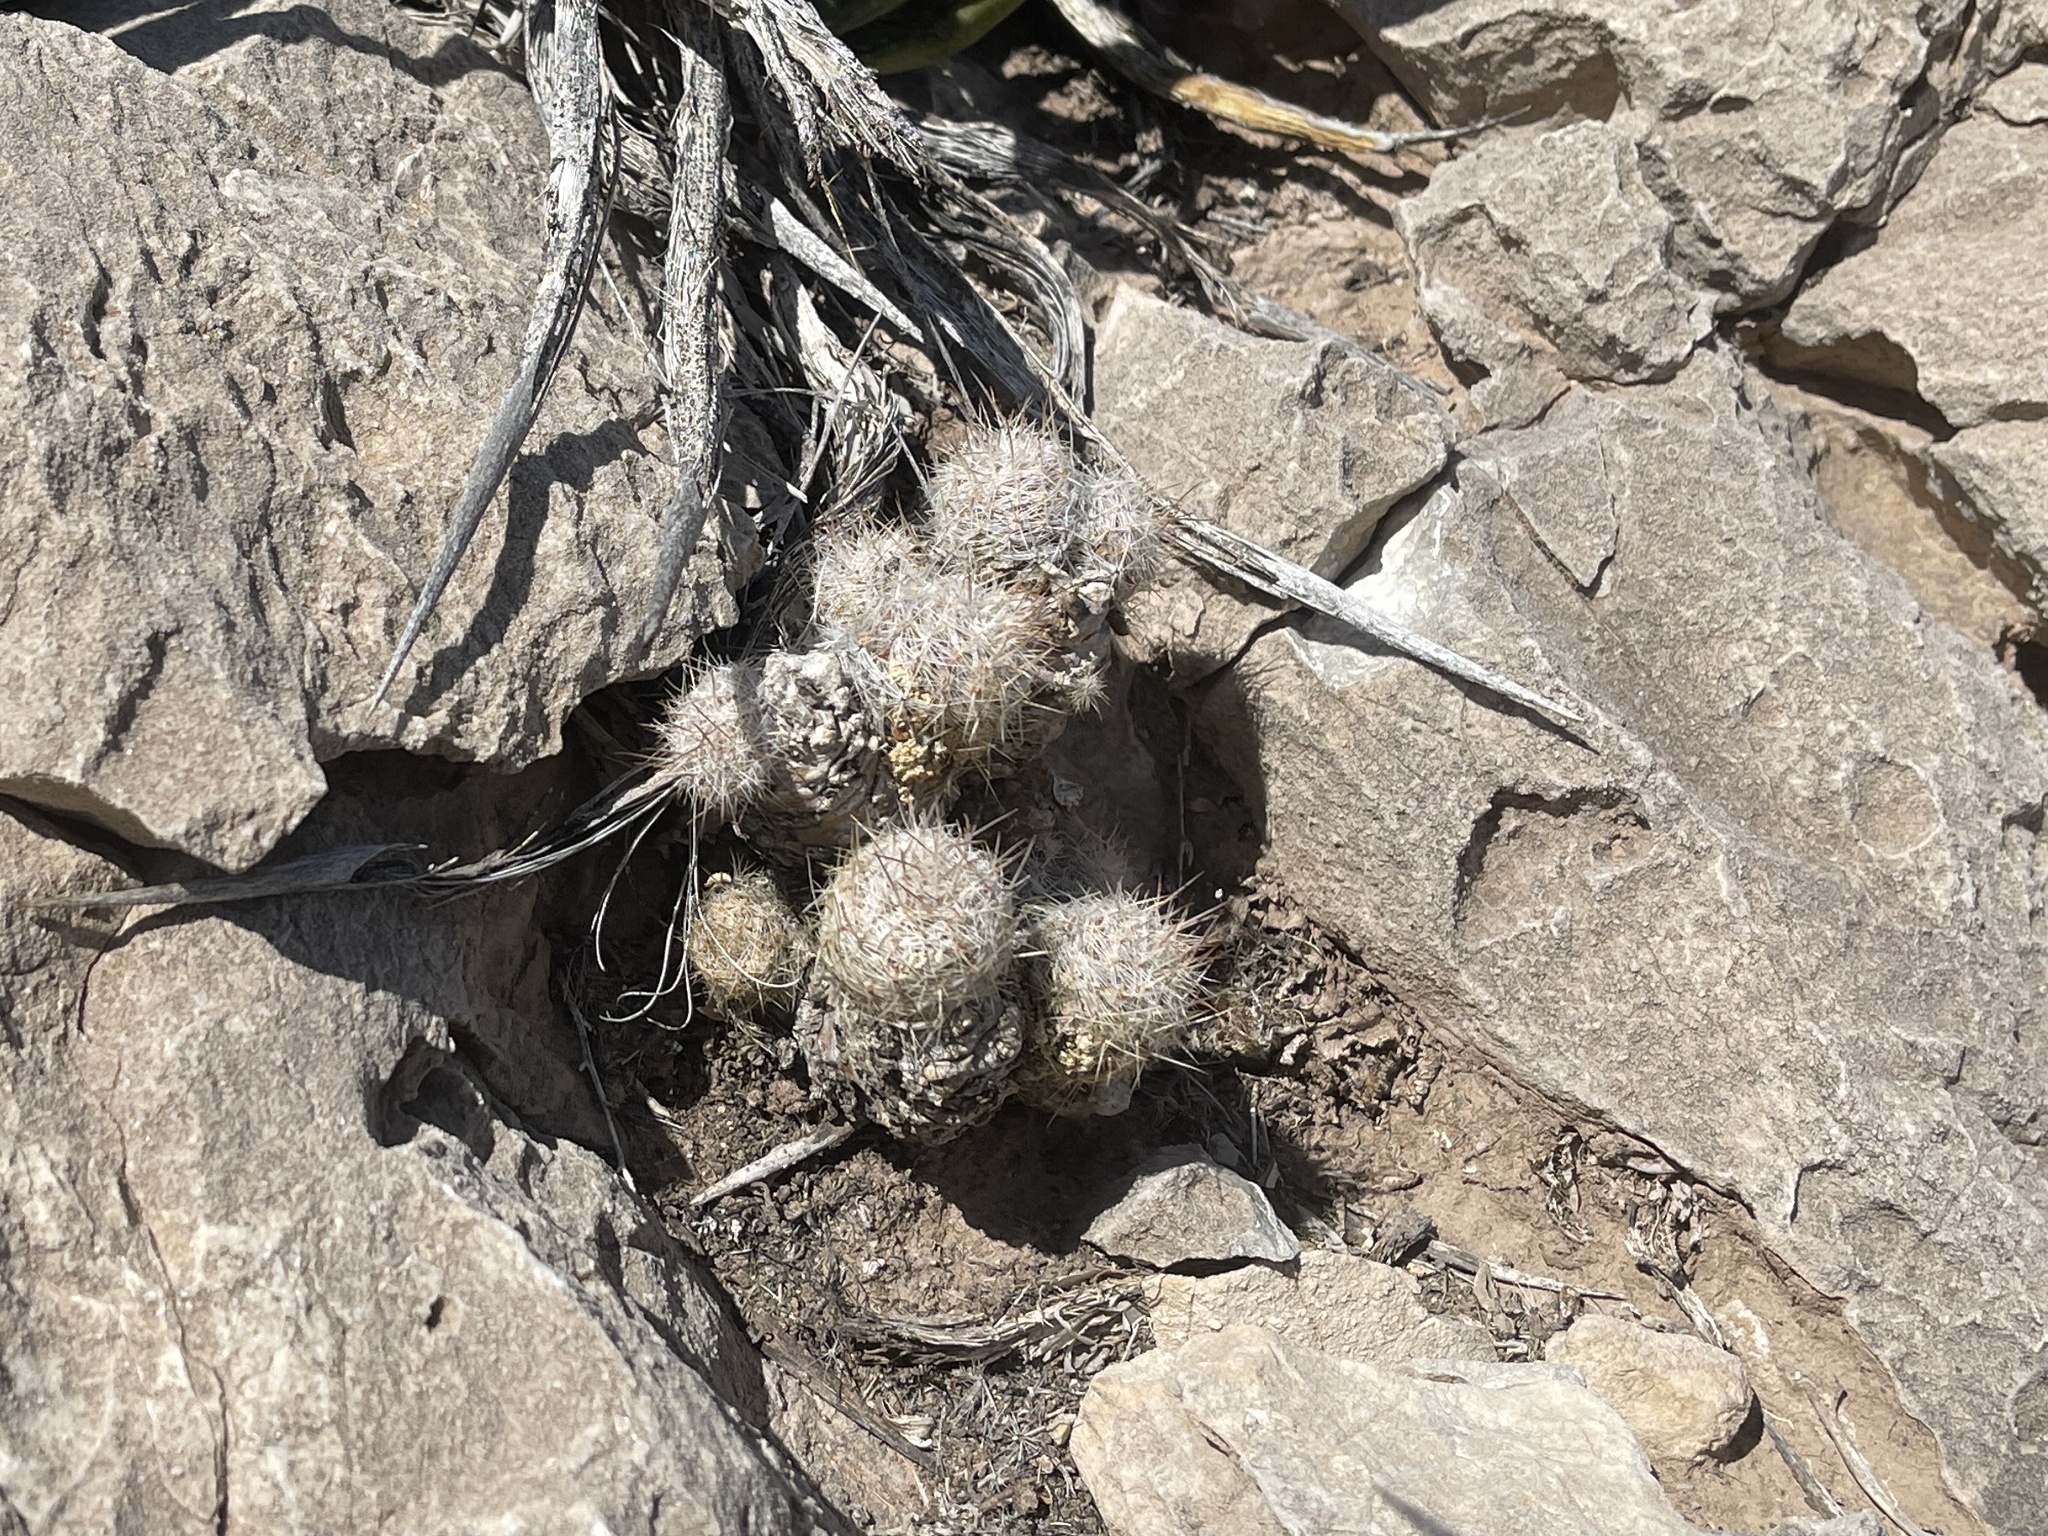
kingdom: Plantae
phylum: Tracheophyta
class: Magnoliopsida
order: Caryophyllales
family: Cactaceae
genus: Pelecyphora
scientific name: Pelecyphora tuberculosa
